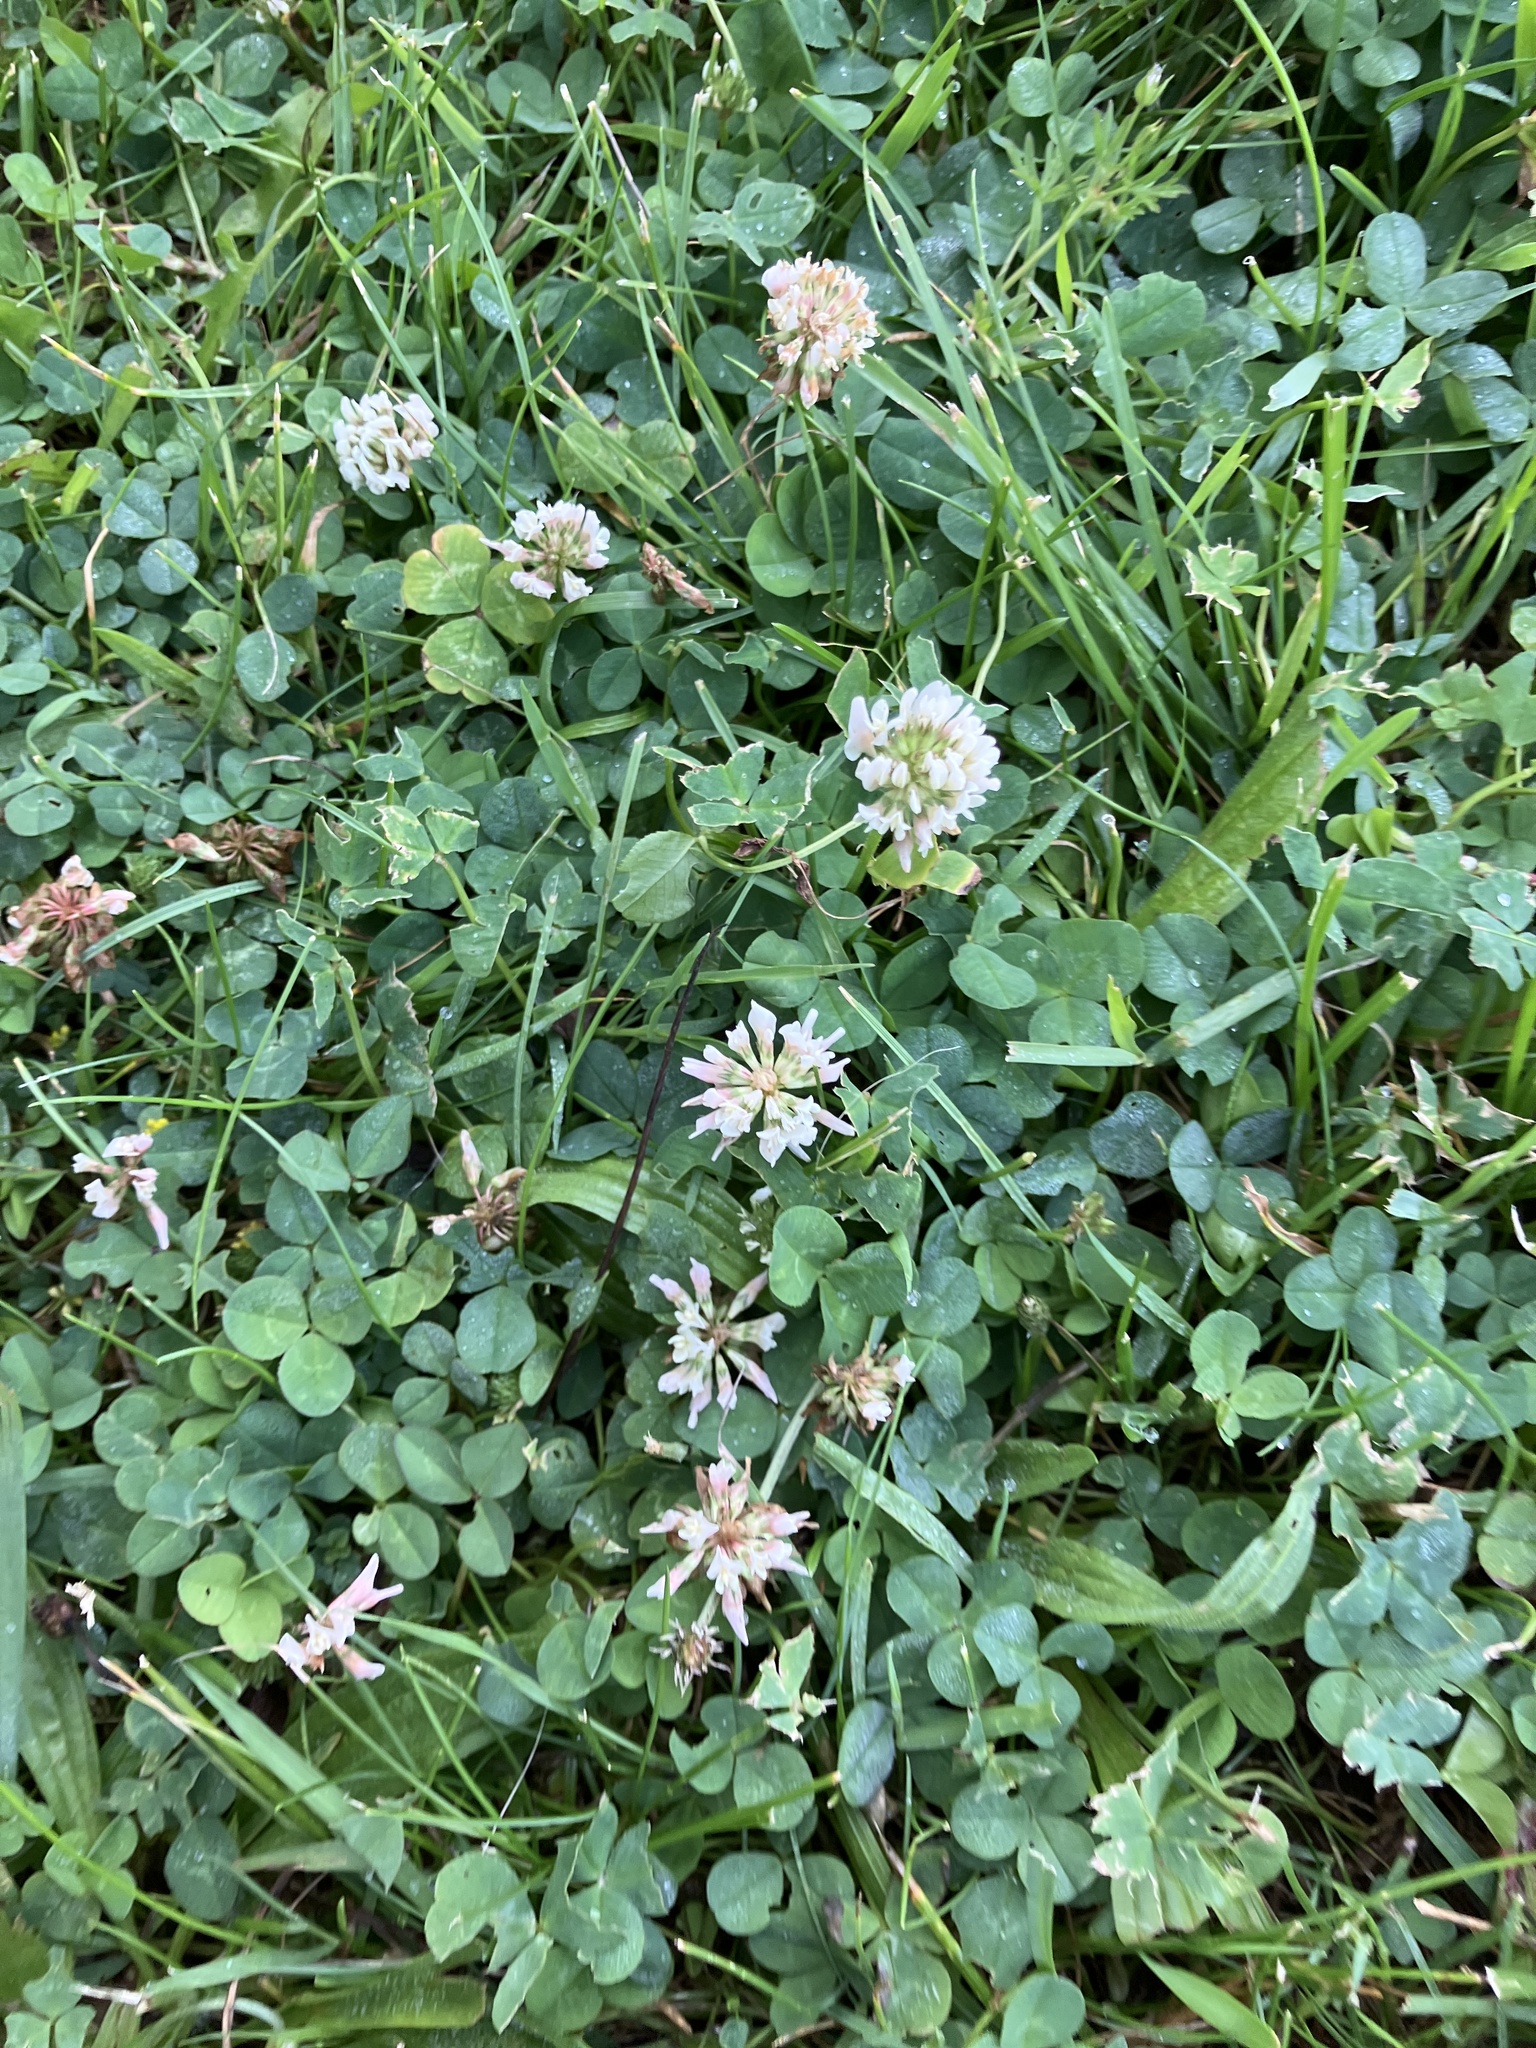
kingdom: Plantae
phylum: Tracheophyta
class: Magnoliopsida
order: Fabales
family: Fabaceae
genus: Trifolium
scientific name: Trifolium repens
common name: White clover
